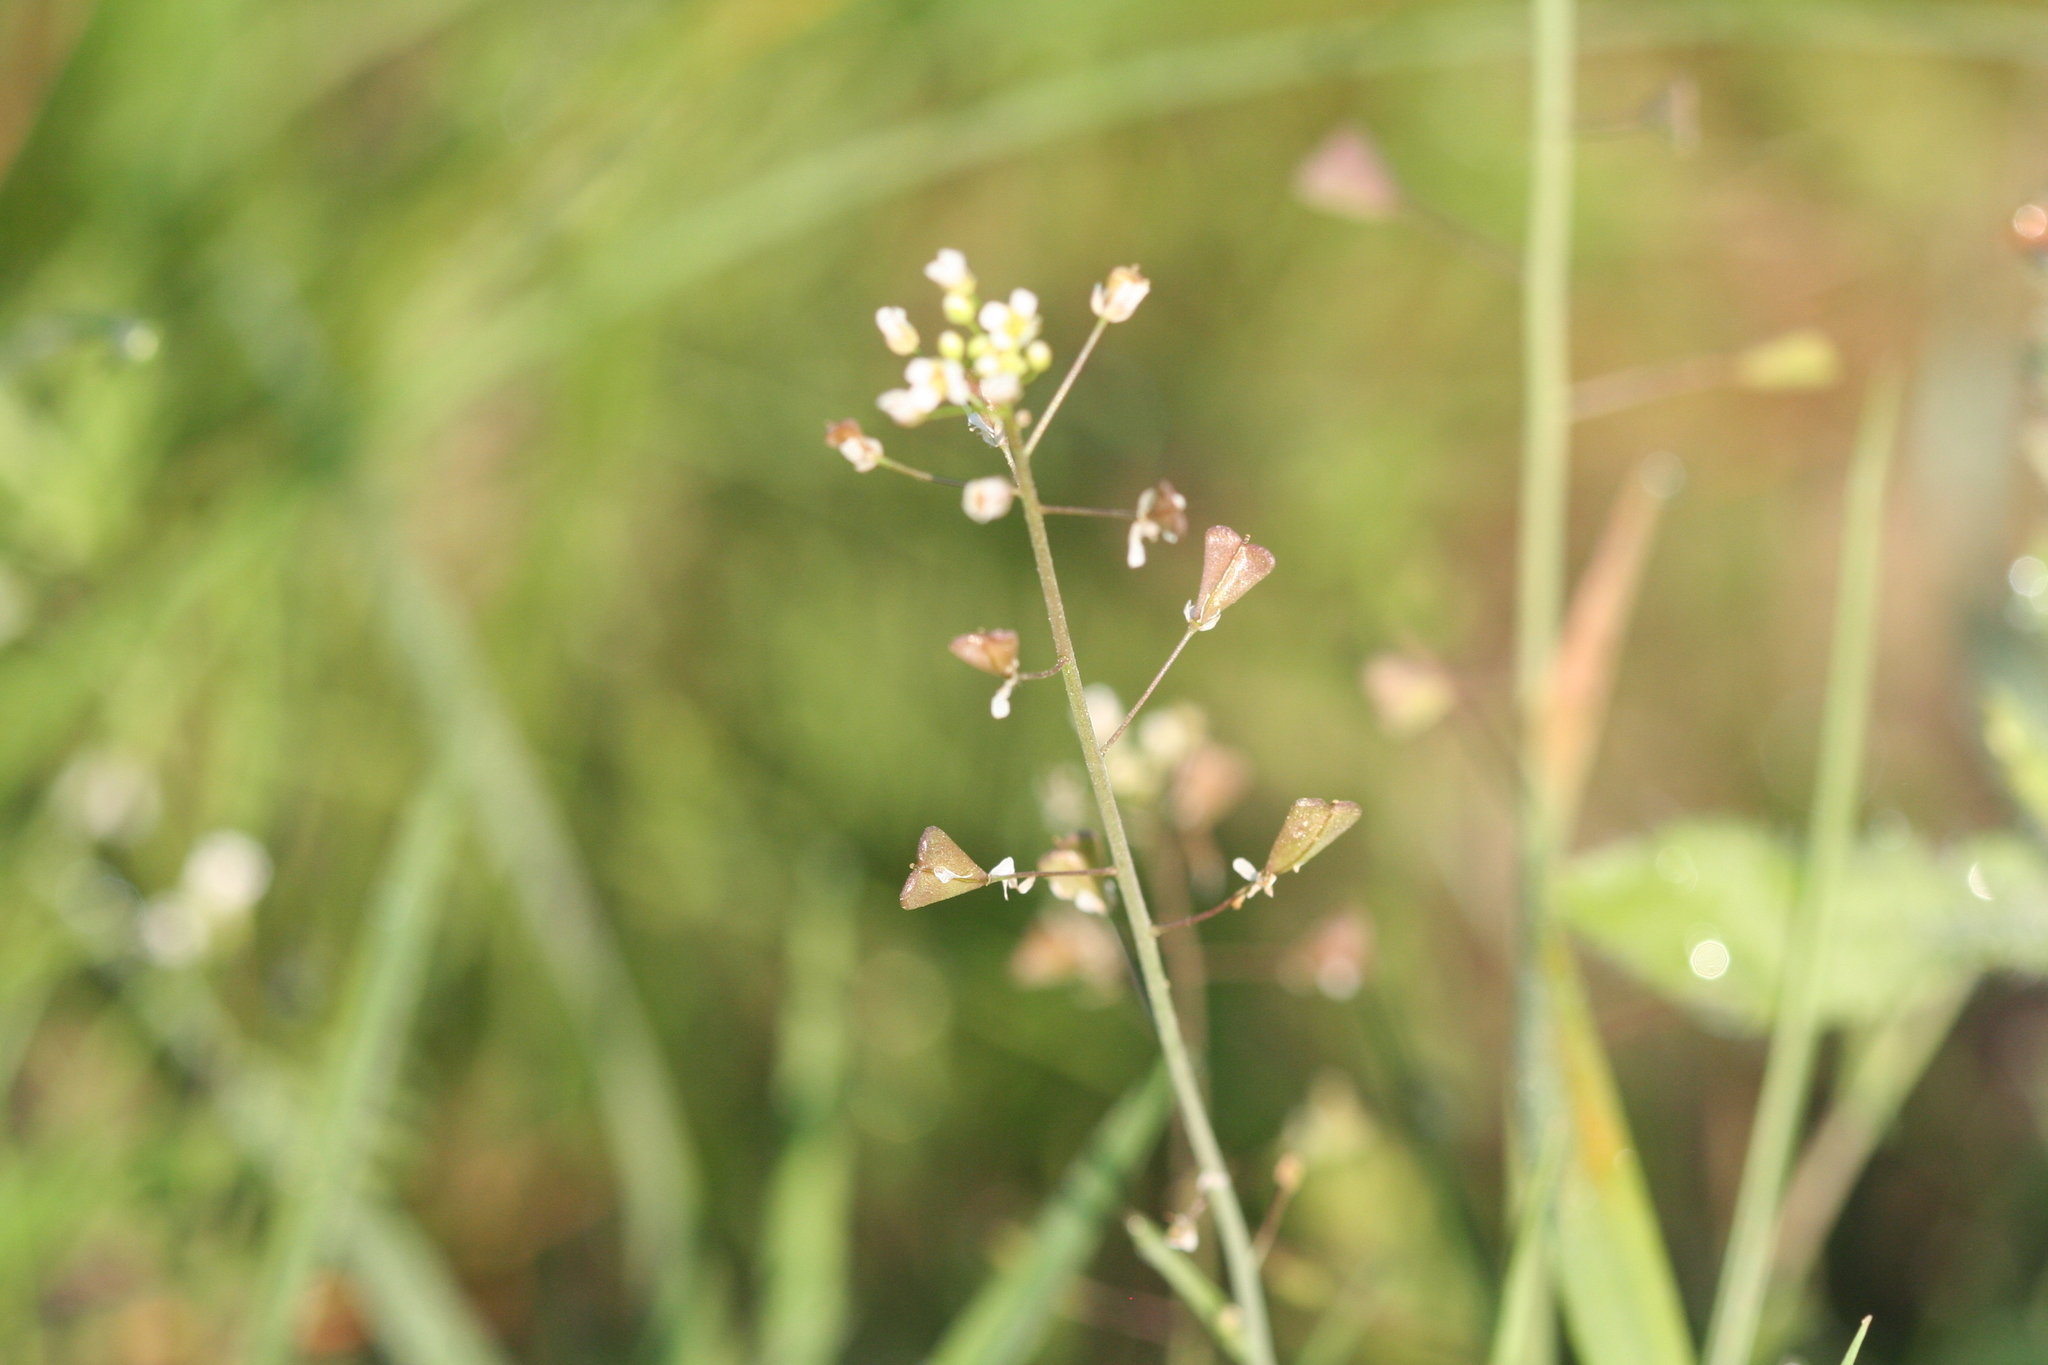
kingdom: Plantae
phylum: Tracheophyta
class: Magnoliopsida
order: Brassicales
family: Brassicaceae
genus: Capsella
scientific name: Capsella bursa-pastoris
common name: Shepherd's purse
